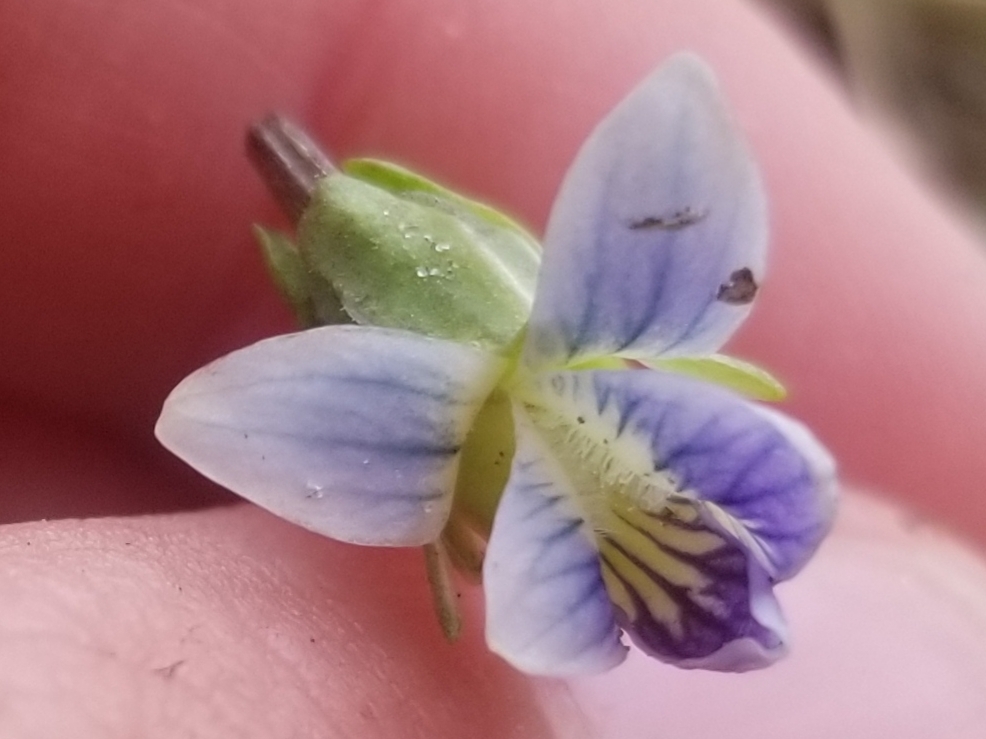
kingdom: Plantae
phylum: Tracheophyta
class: Magnoliopsida
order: Malpighiales
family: Violaceae
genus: Viola
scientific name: Viola sororia
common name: Dooryard violet
